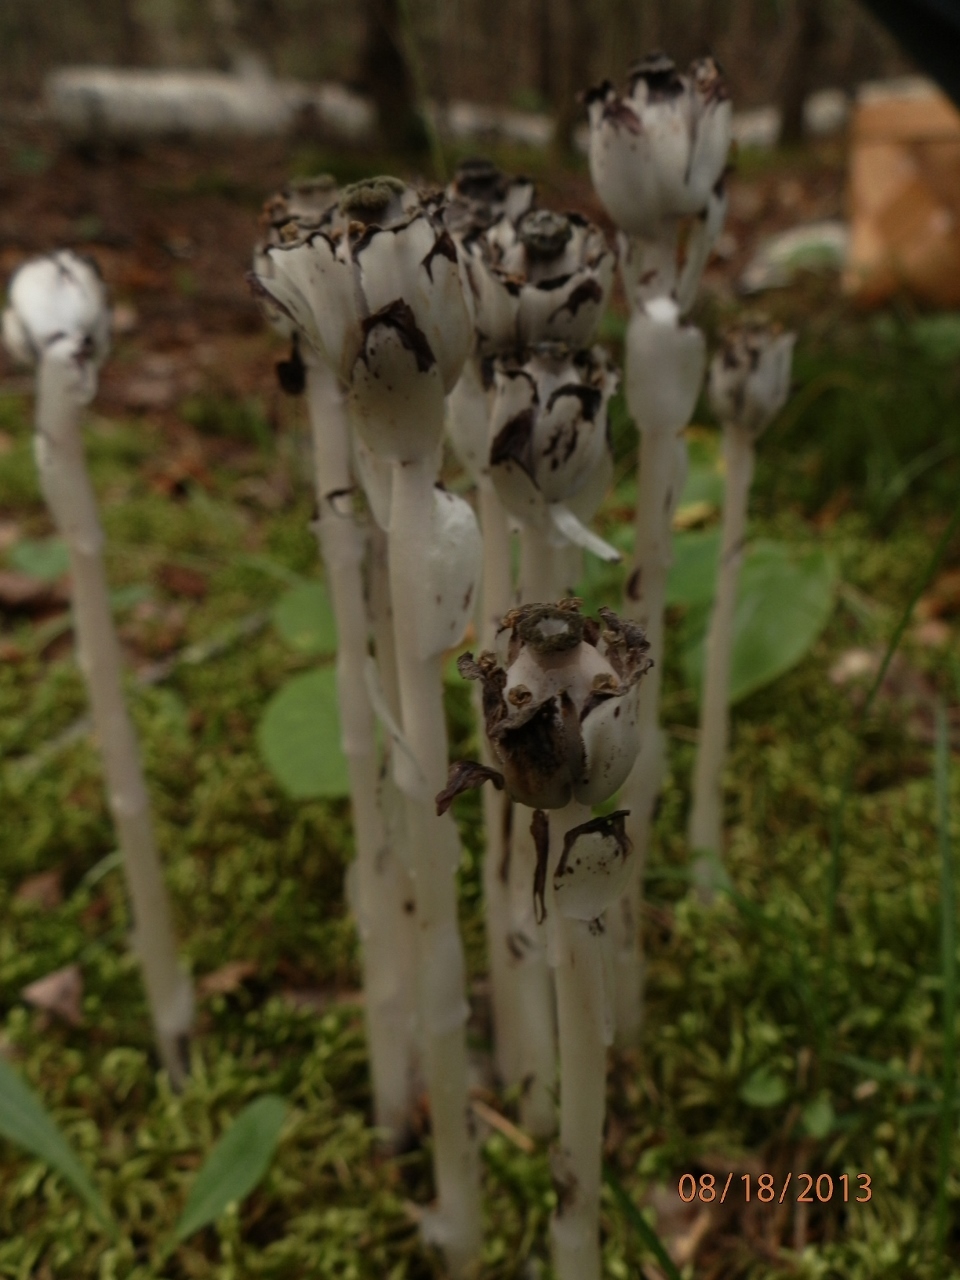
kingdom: Plantae
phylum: Tracheophyta
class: Magnoliopsida
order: Ericales
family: Ericaceae
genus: Monotropa
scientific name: Monotropa uniflora
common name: Convulsion root
